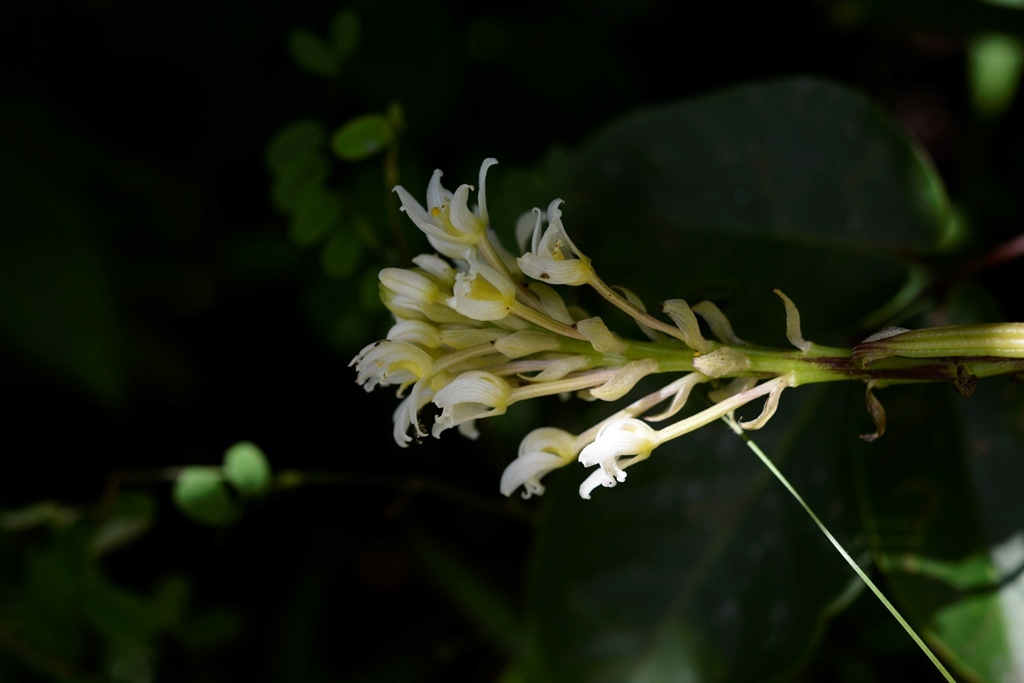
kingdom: Plantae
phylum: Tracheophyta
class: Liliopsida
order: Asparagales
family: Orchidaceae
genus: Govenia
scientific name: Govenia alba
